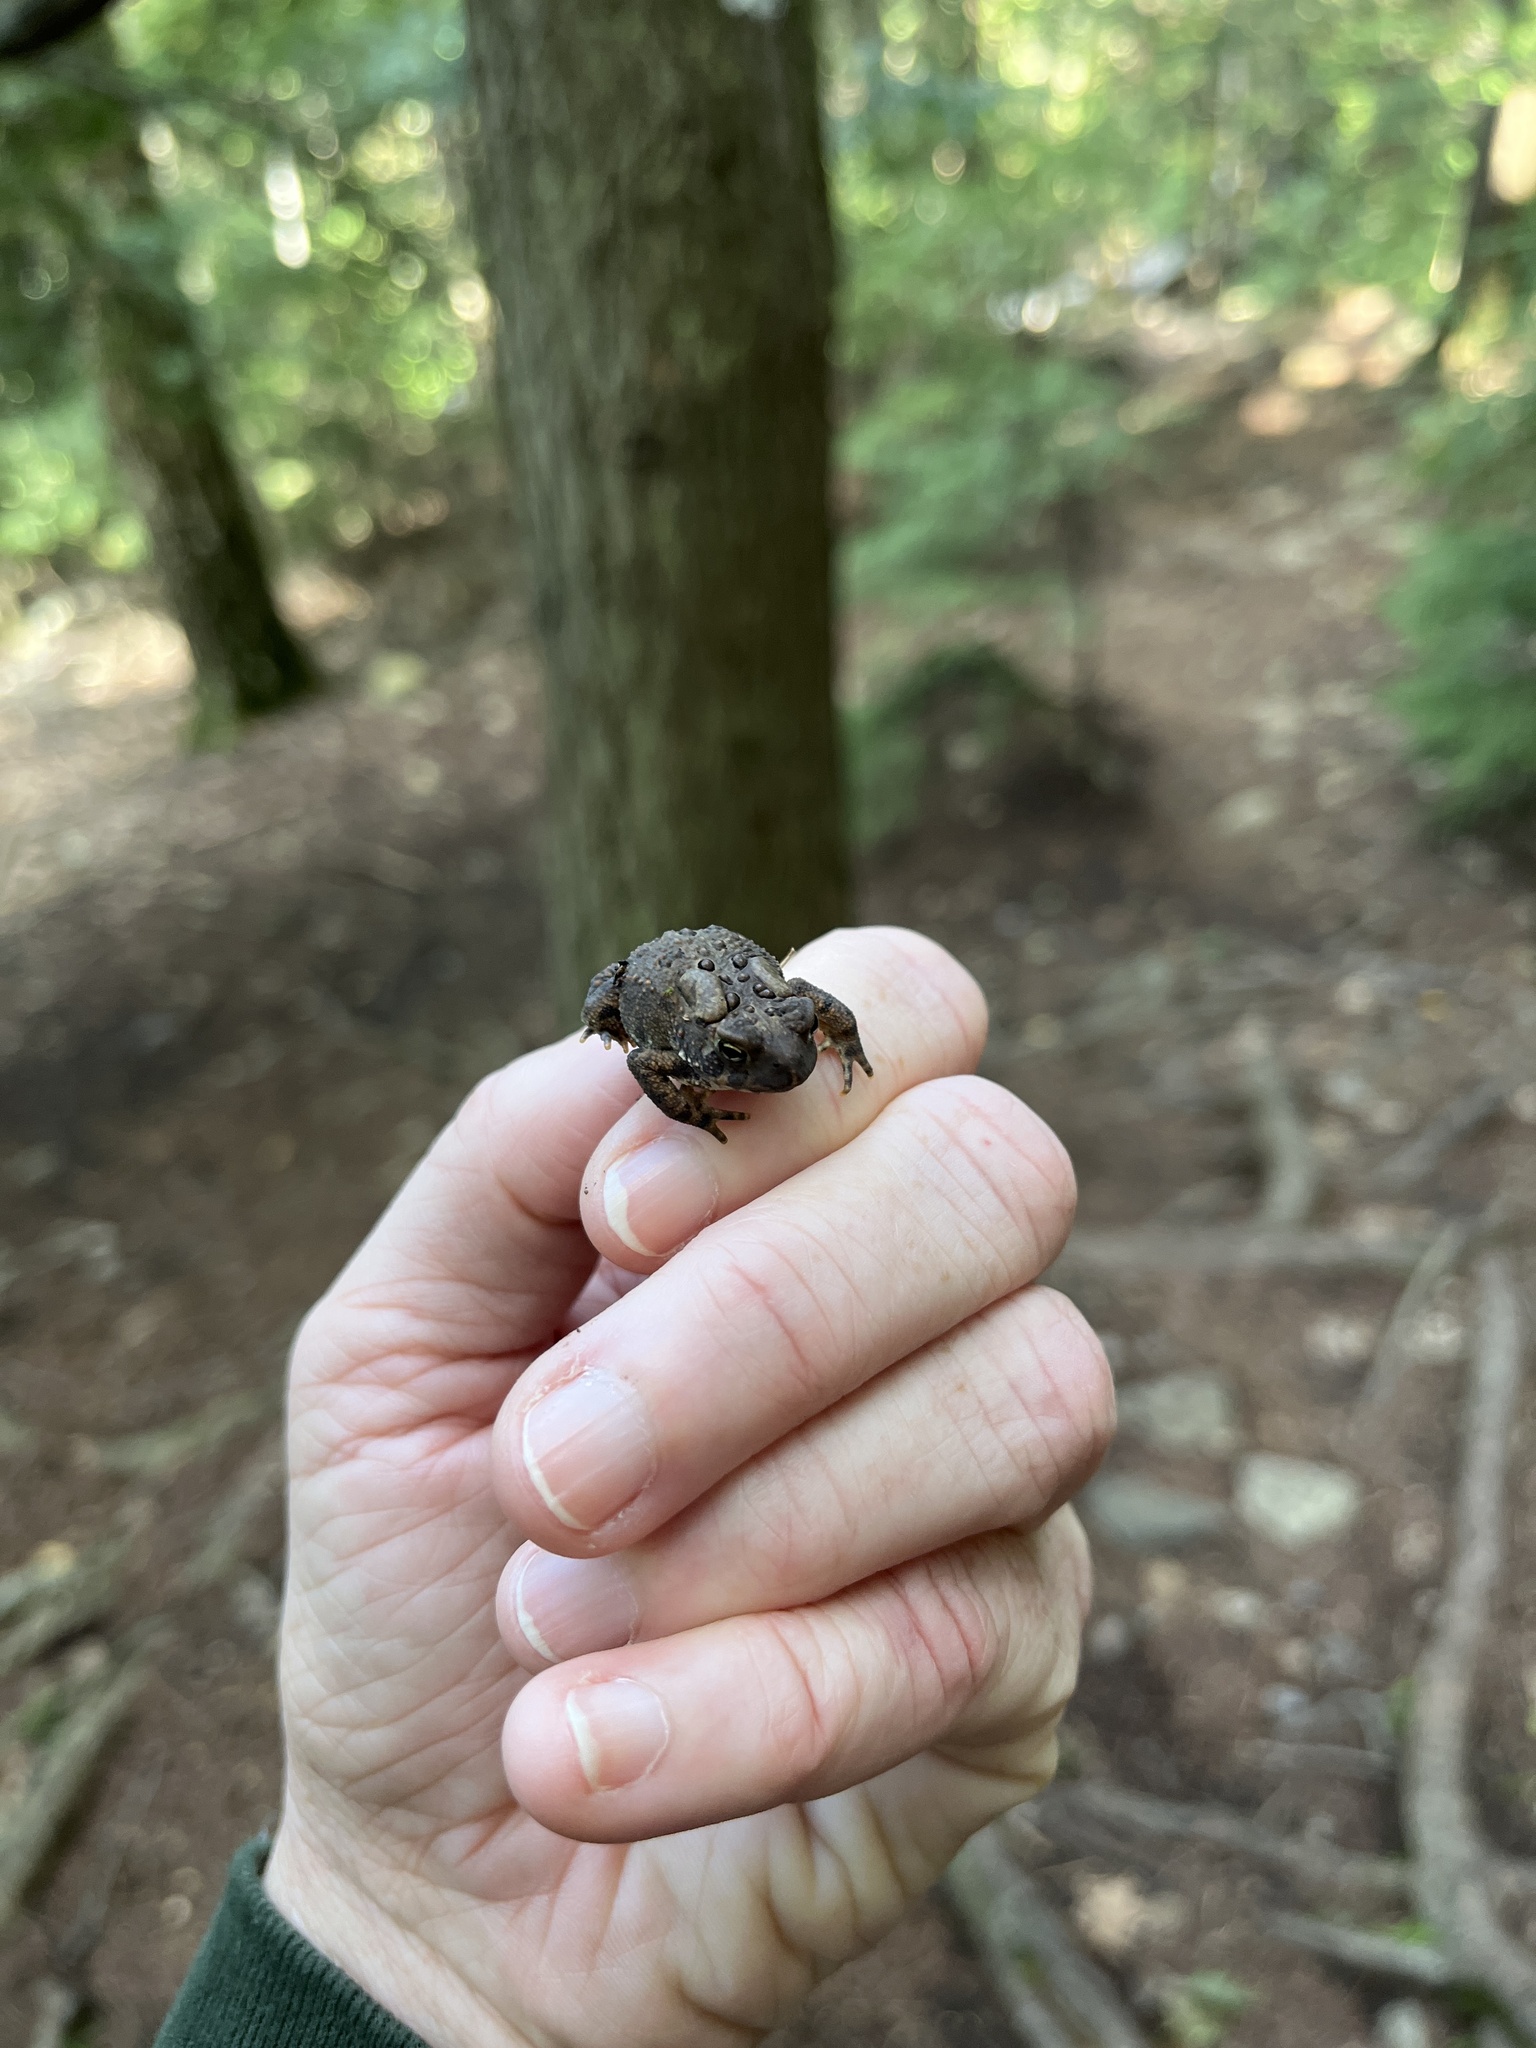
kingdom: Animalia
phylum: Chordata
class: Amphibia
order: Anura
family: Bufonidae
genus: Anaxyrus
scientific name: Anaxyrus americanus
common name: American toad
